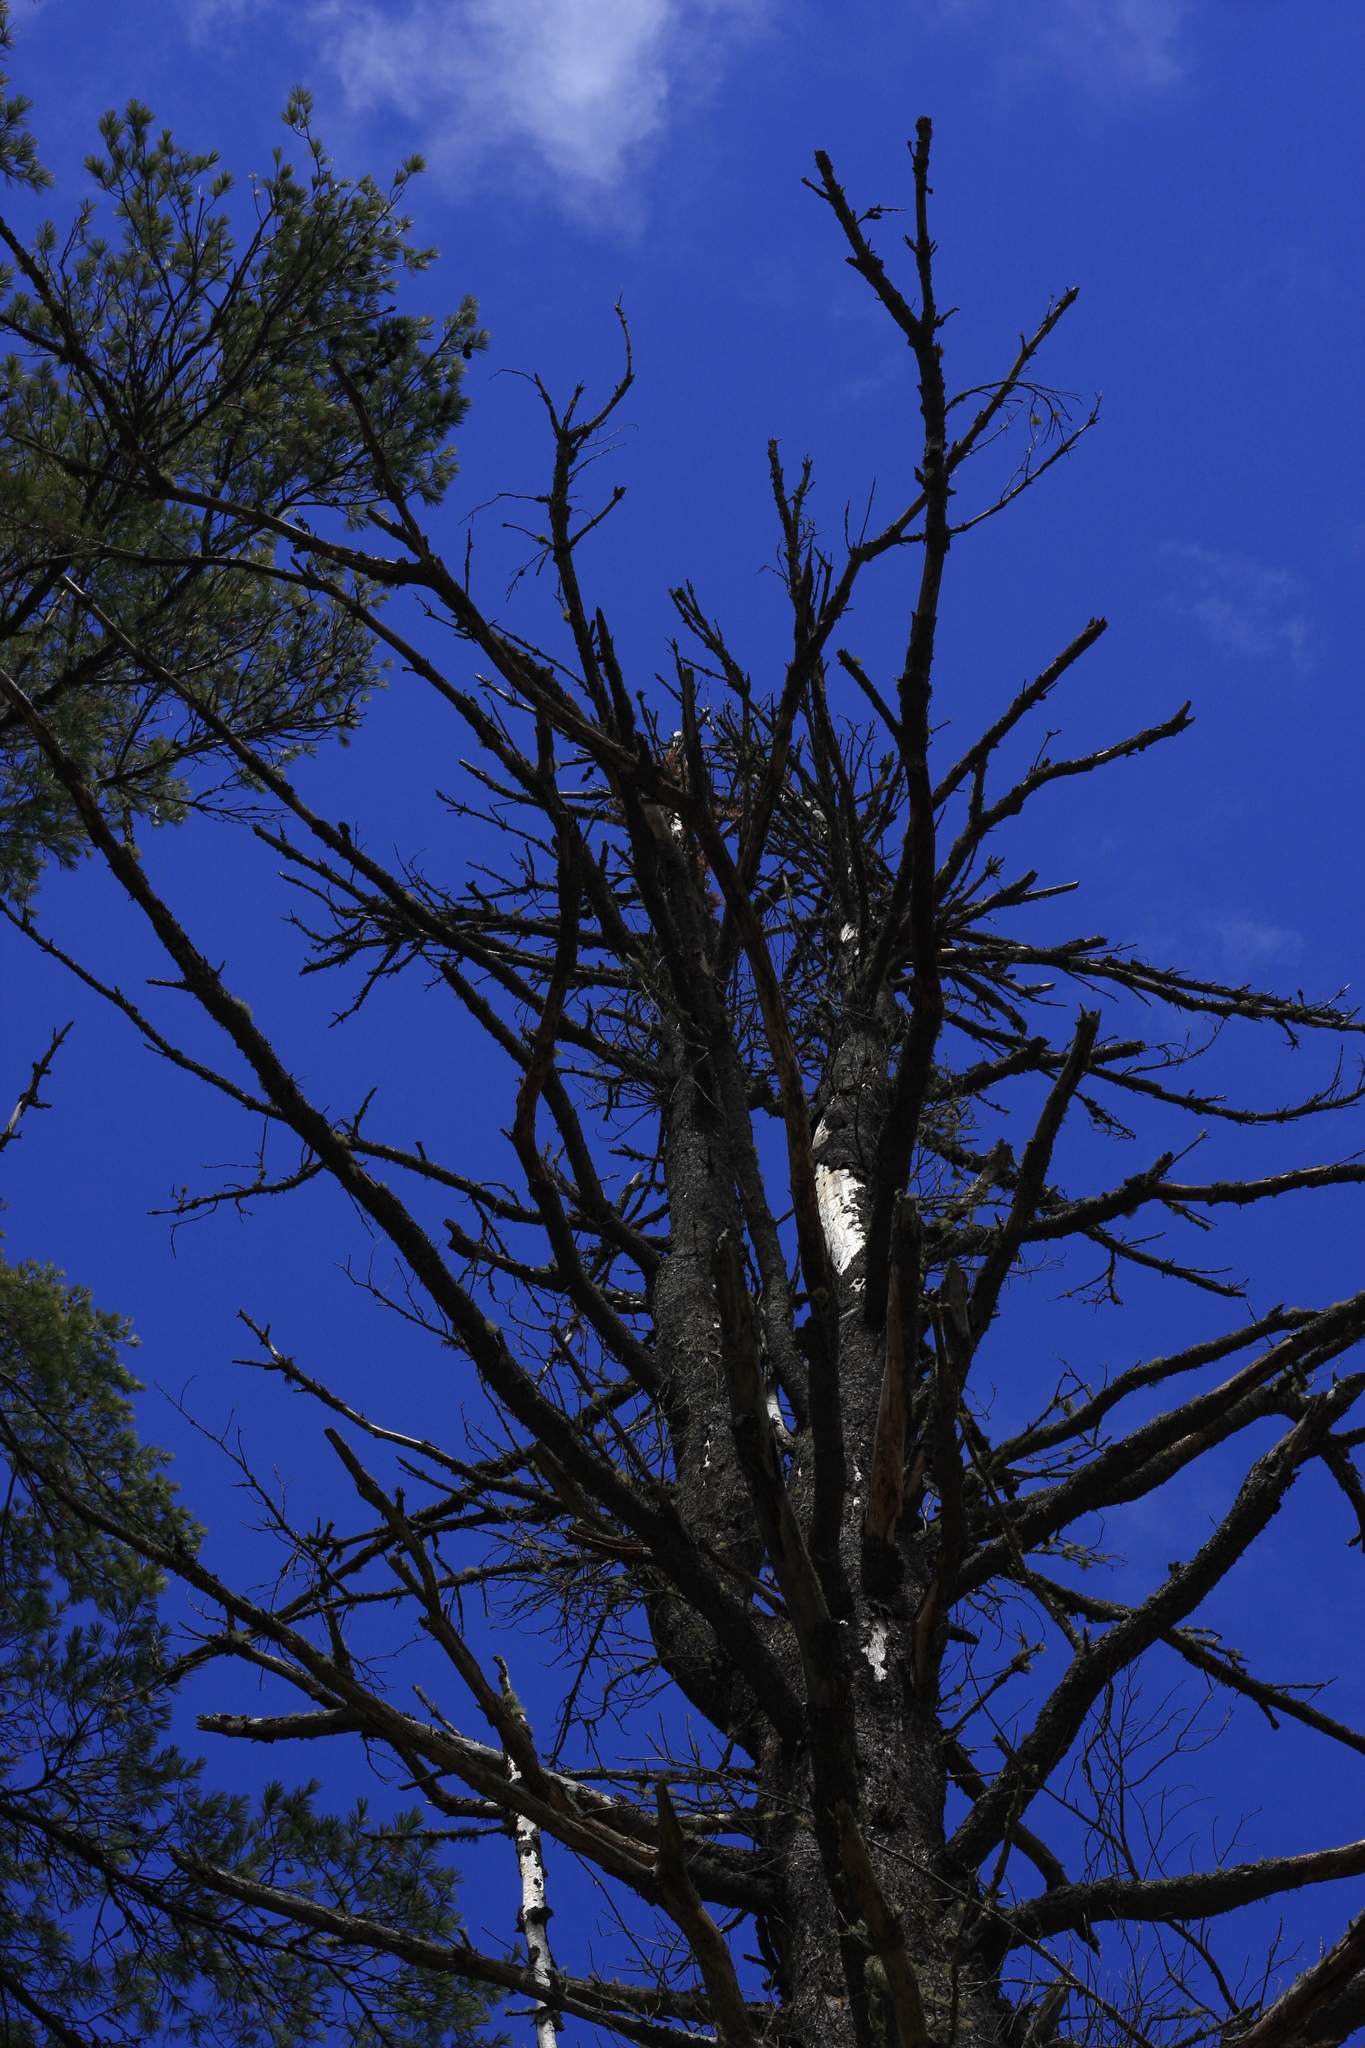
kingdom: Plantae
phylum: Tracheophyta
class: Pinopsida
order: Pinales
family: Pinaceae
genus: Pinus
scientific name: Pinus strobus
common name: Weymouth pine
